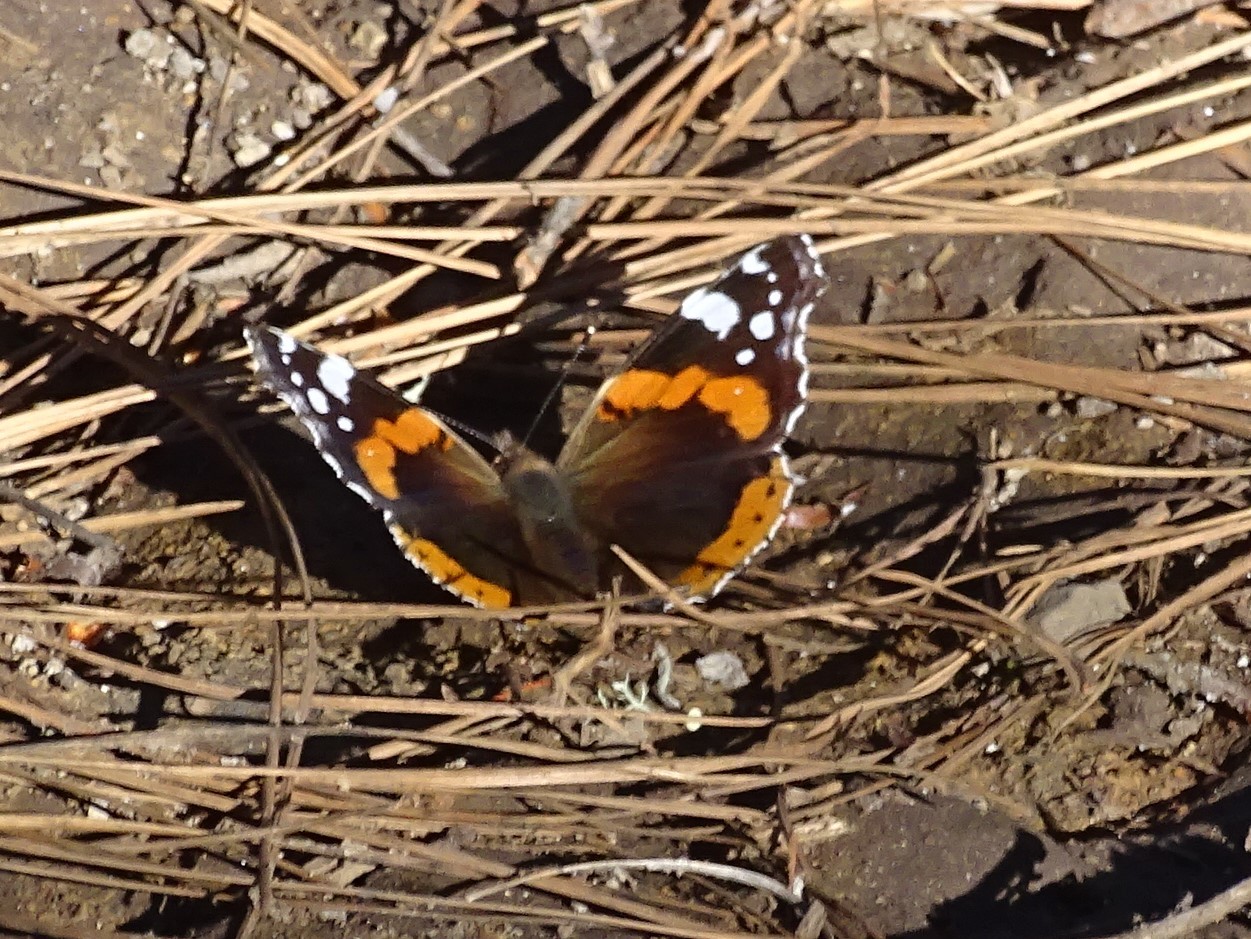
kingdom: Animalia
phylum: Arthropoda
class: Insecta
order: Lepidoptera
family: Nymphalidae
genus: Vanessa
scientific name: Vanessa atalanta
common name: Red admiral
